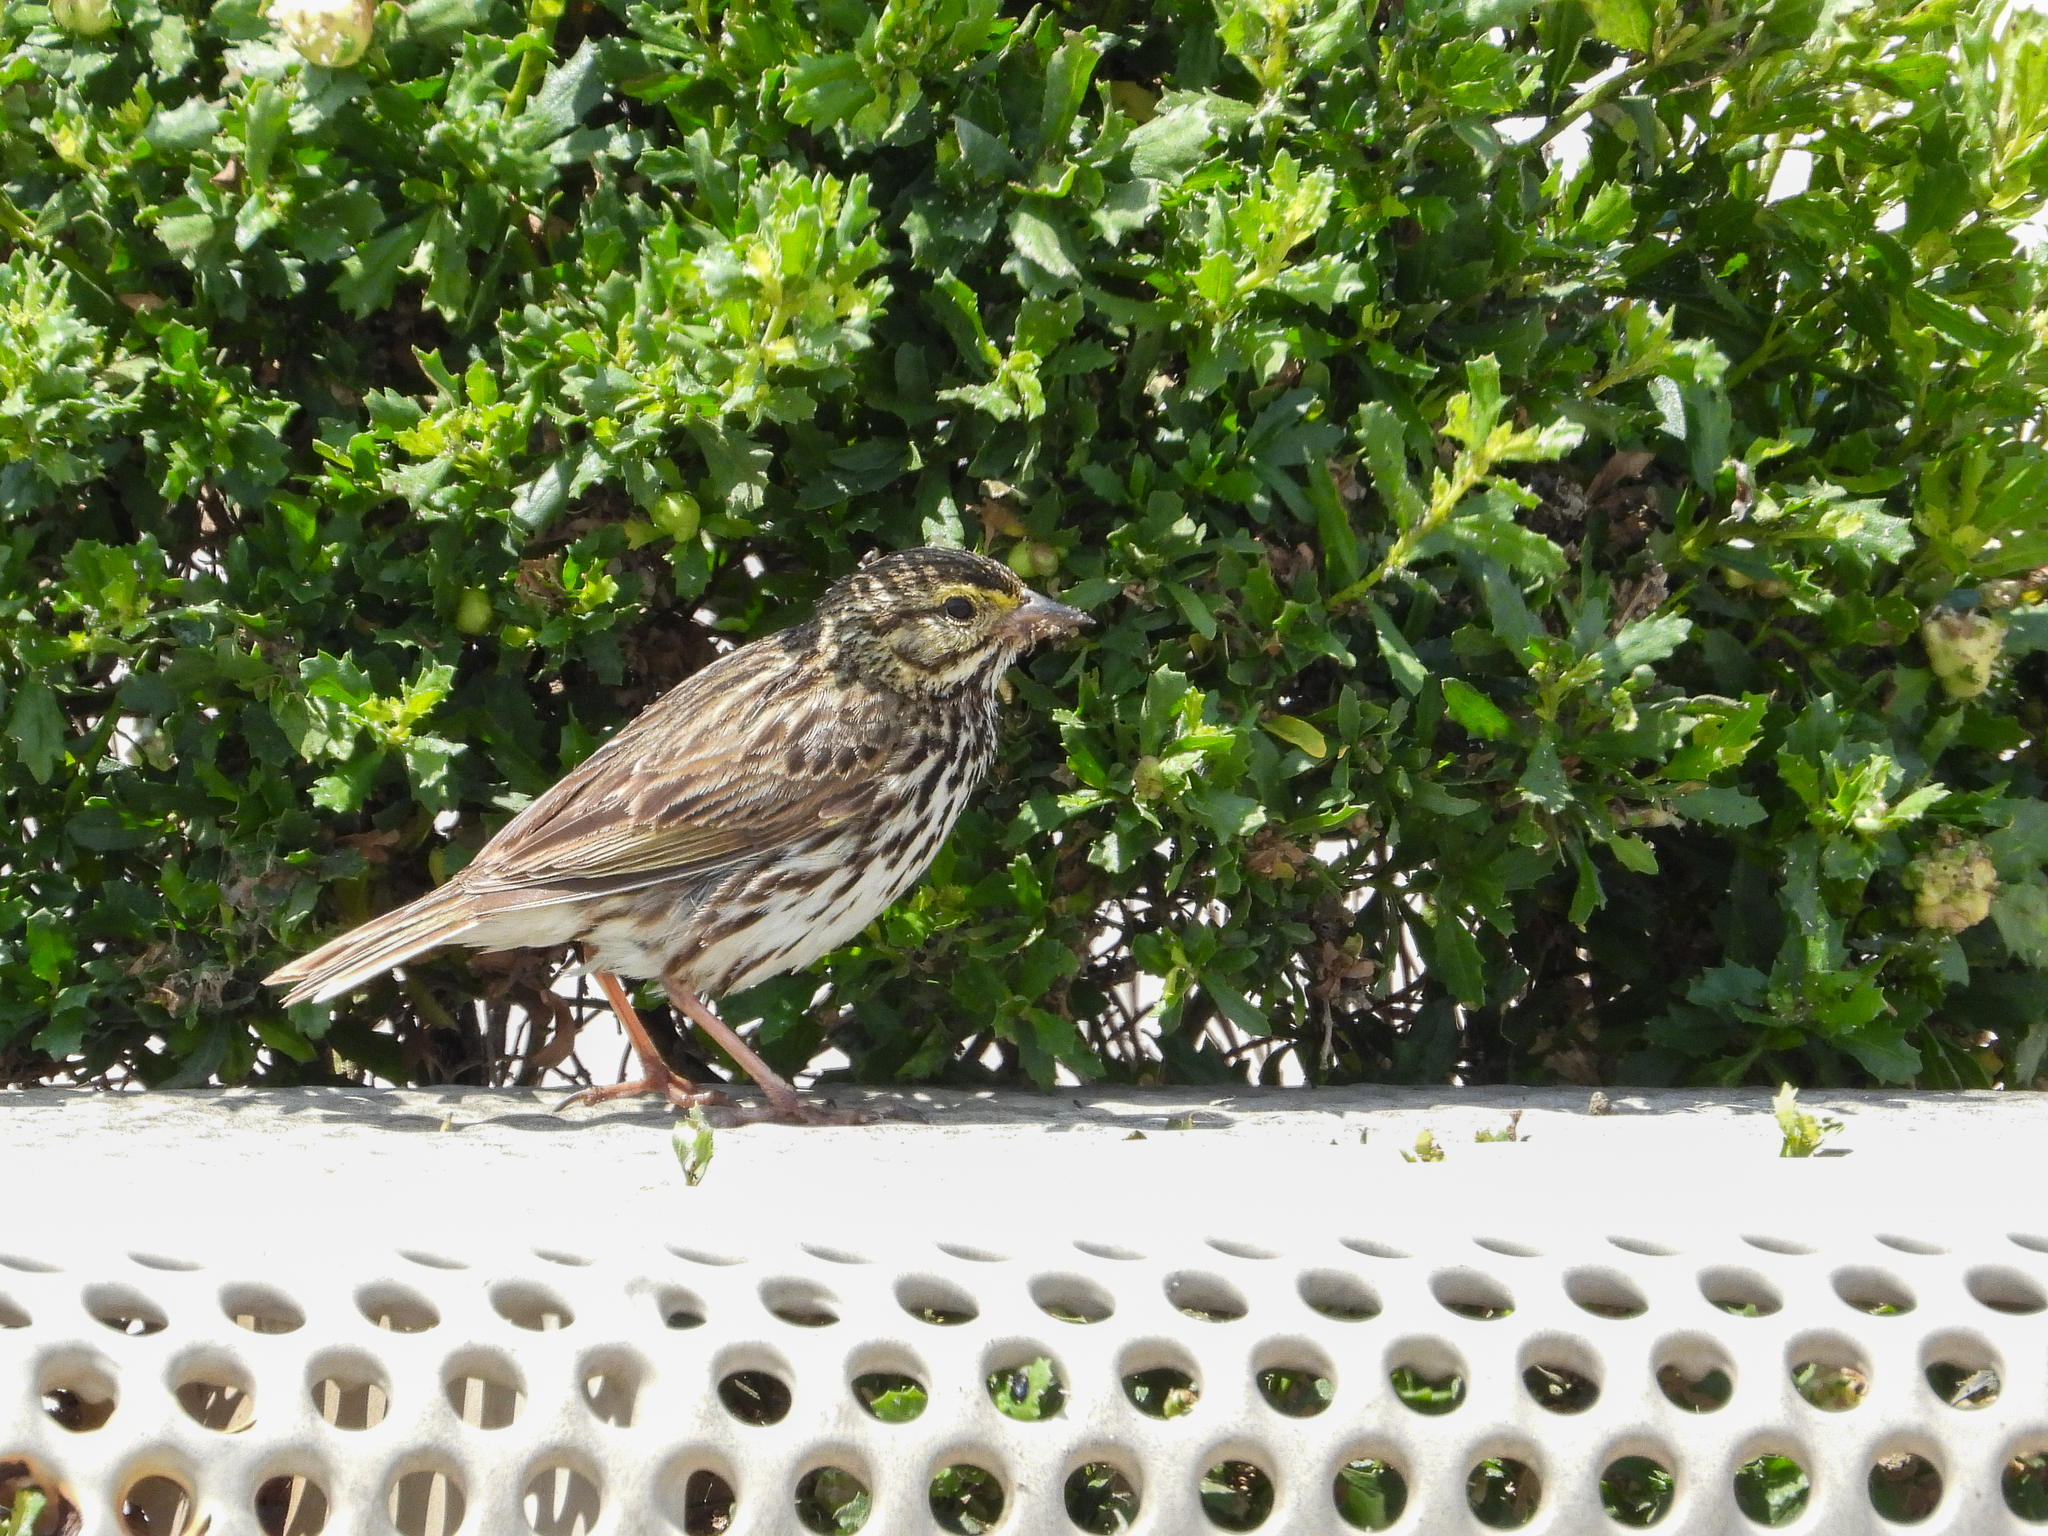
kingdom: Animalia
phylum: Chordata
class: Aves
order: Passeriformes
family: Passerellidae
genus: Passerculus
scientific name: Passerculus sandwichensis
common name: Savannah sparrow
